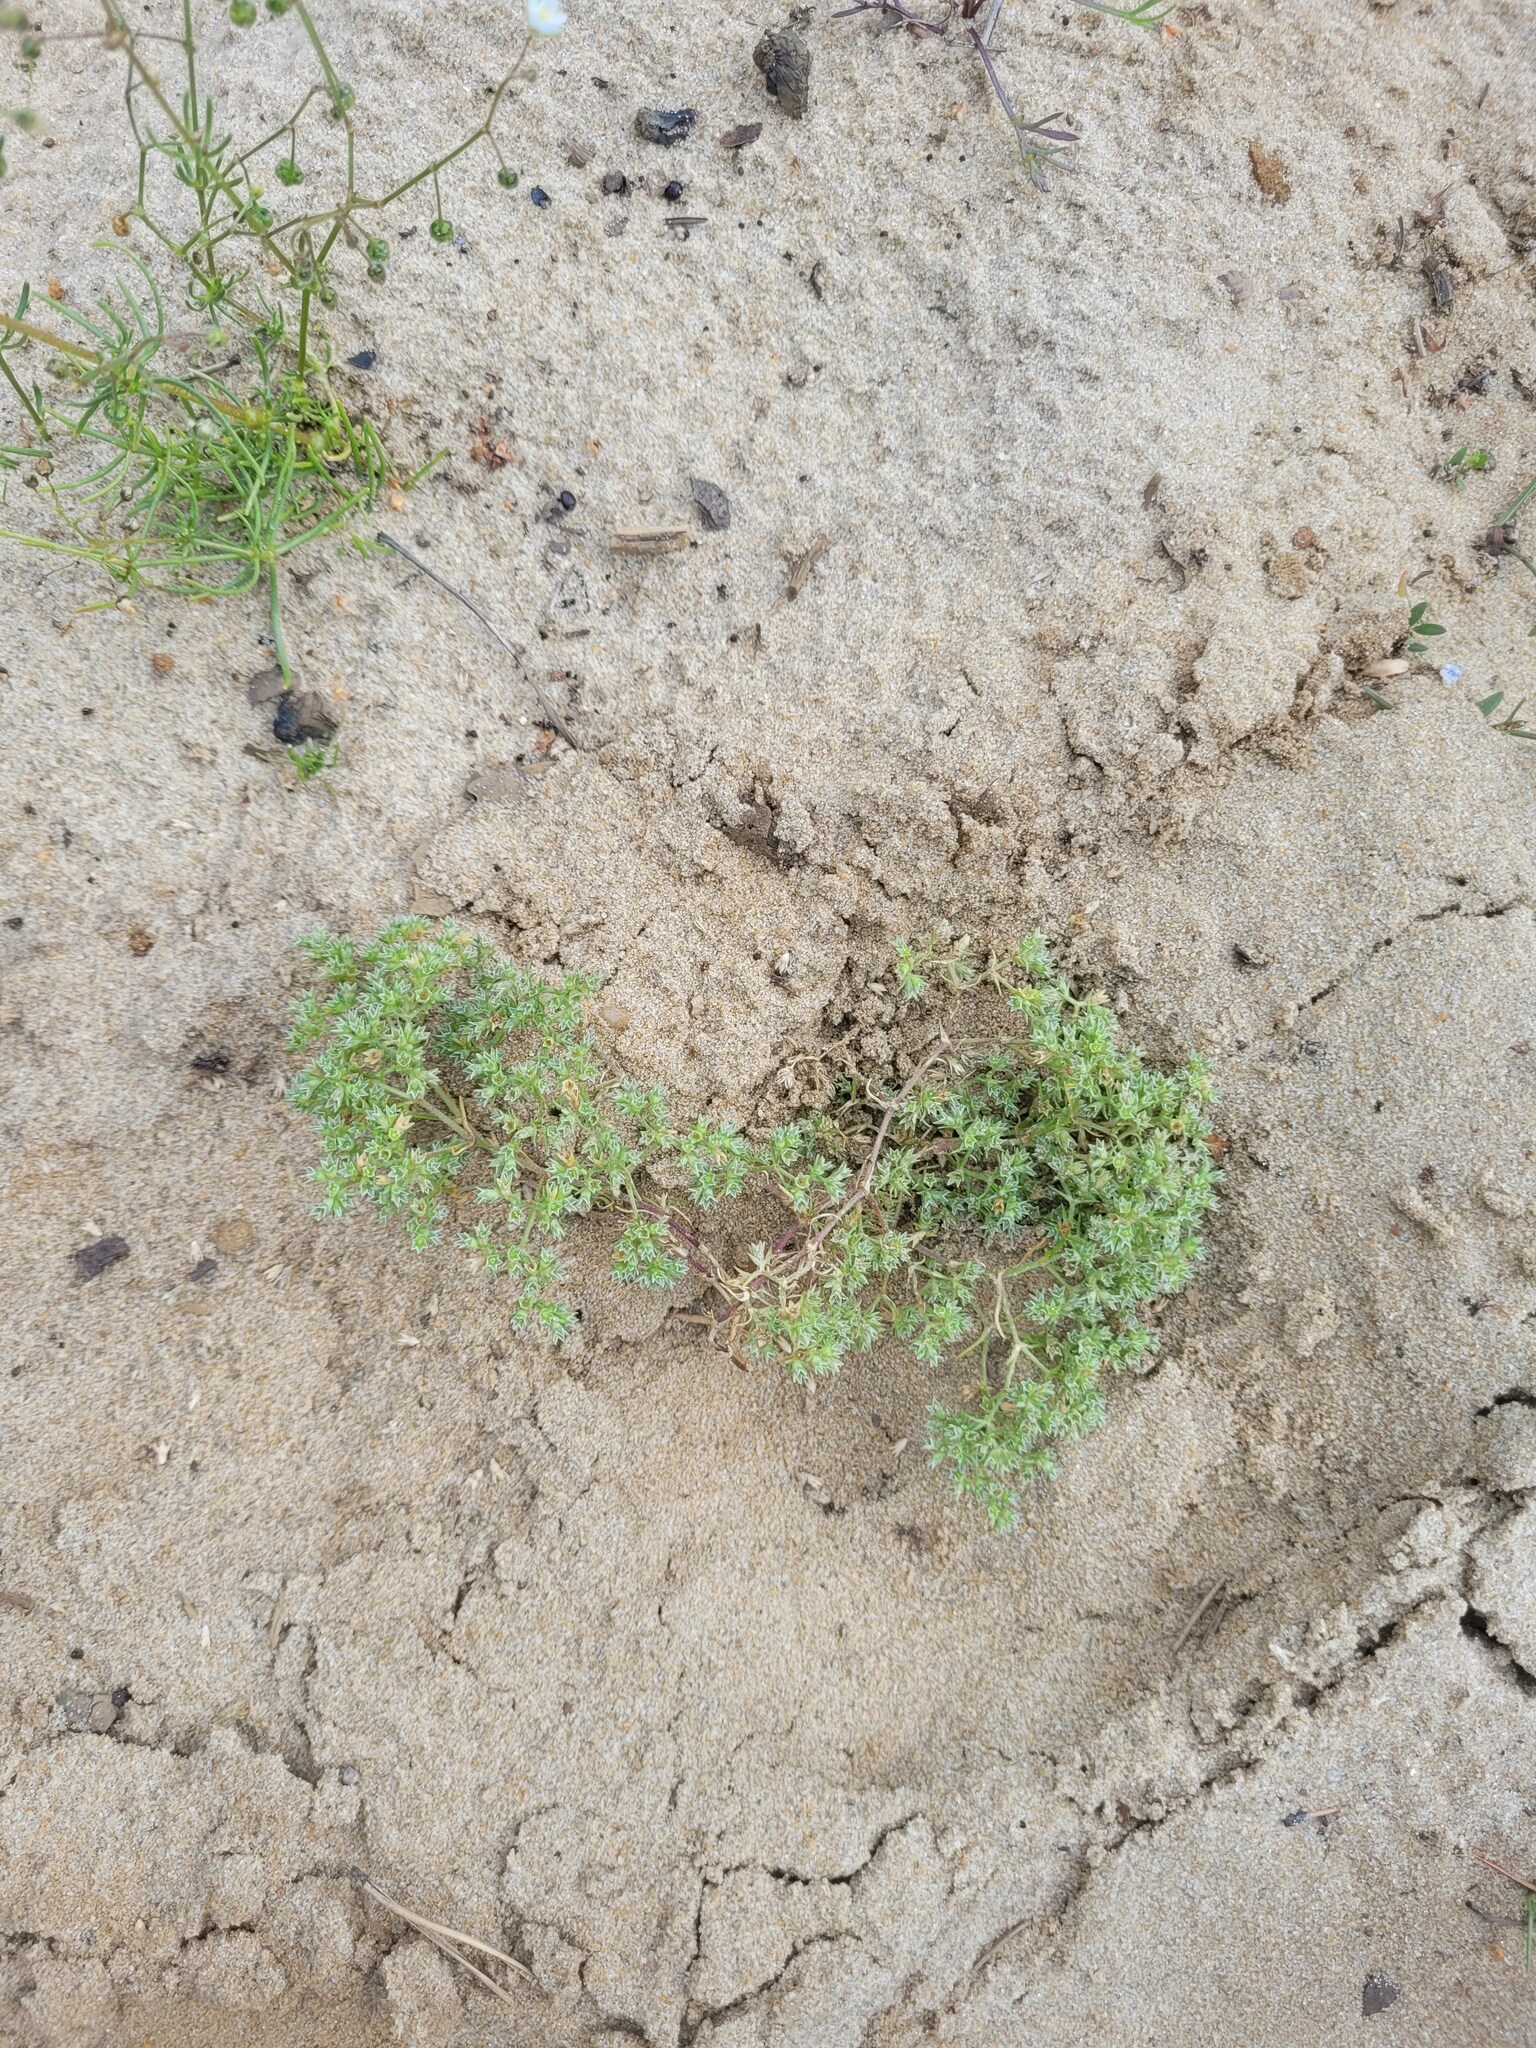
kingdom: Plantae
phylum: Tracheophyta
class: Magnoliopsida
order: Caryophyllales
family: Caryophyllaceae
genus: Scleranthus
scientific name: Scleranthus annuus
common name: Annual knawel
